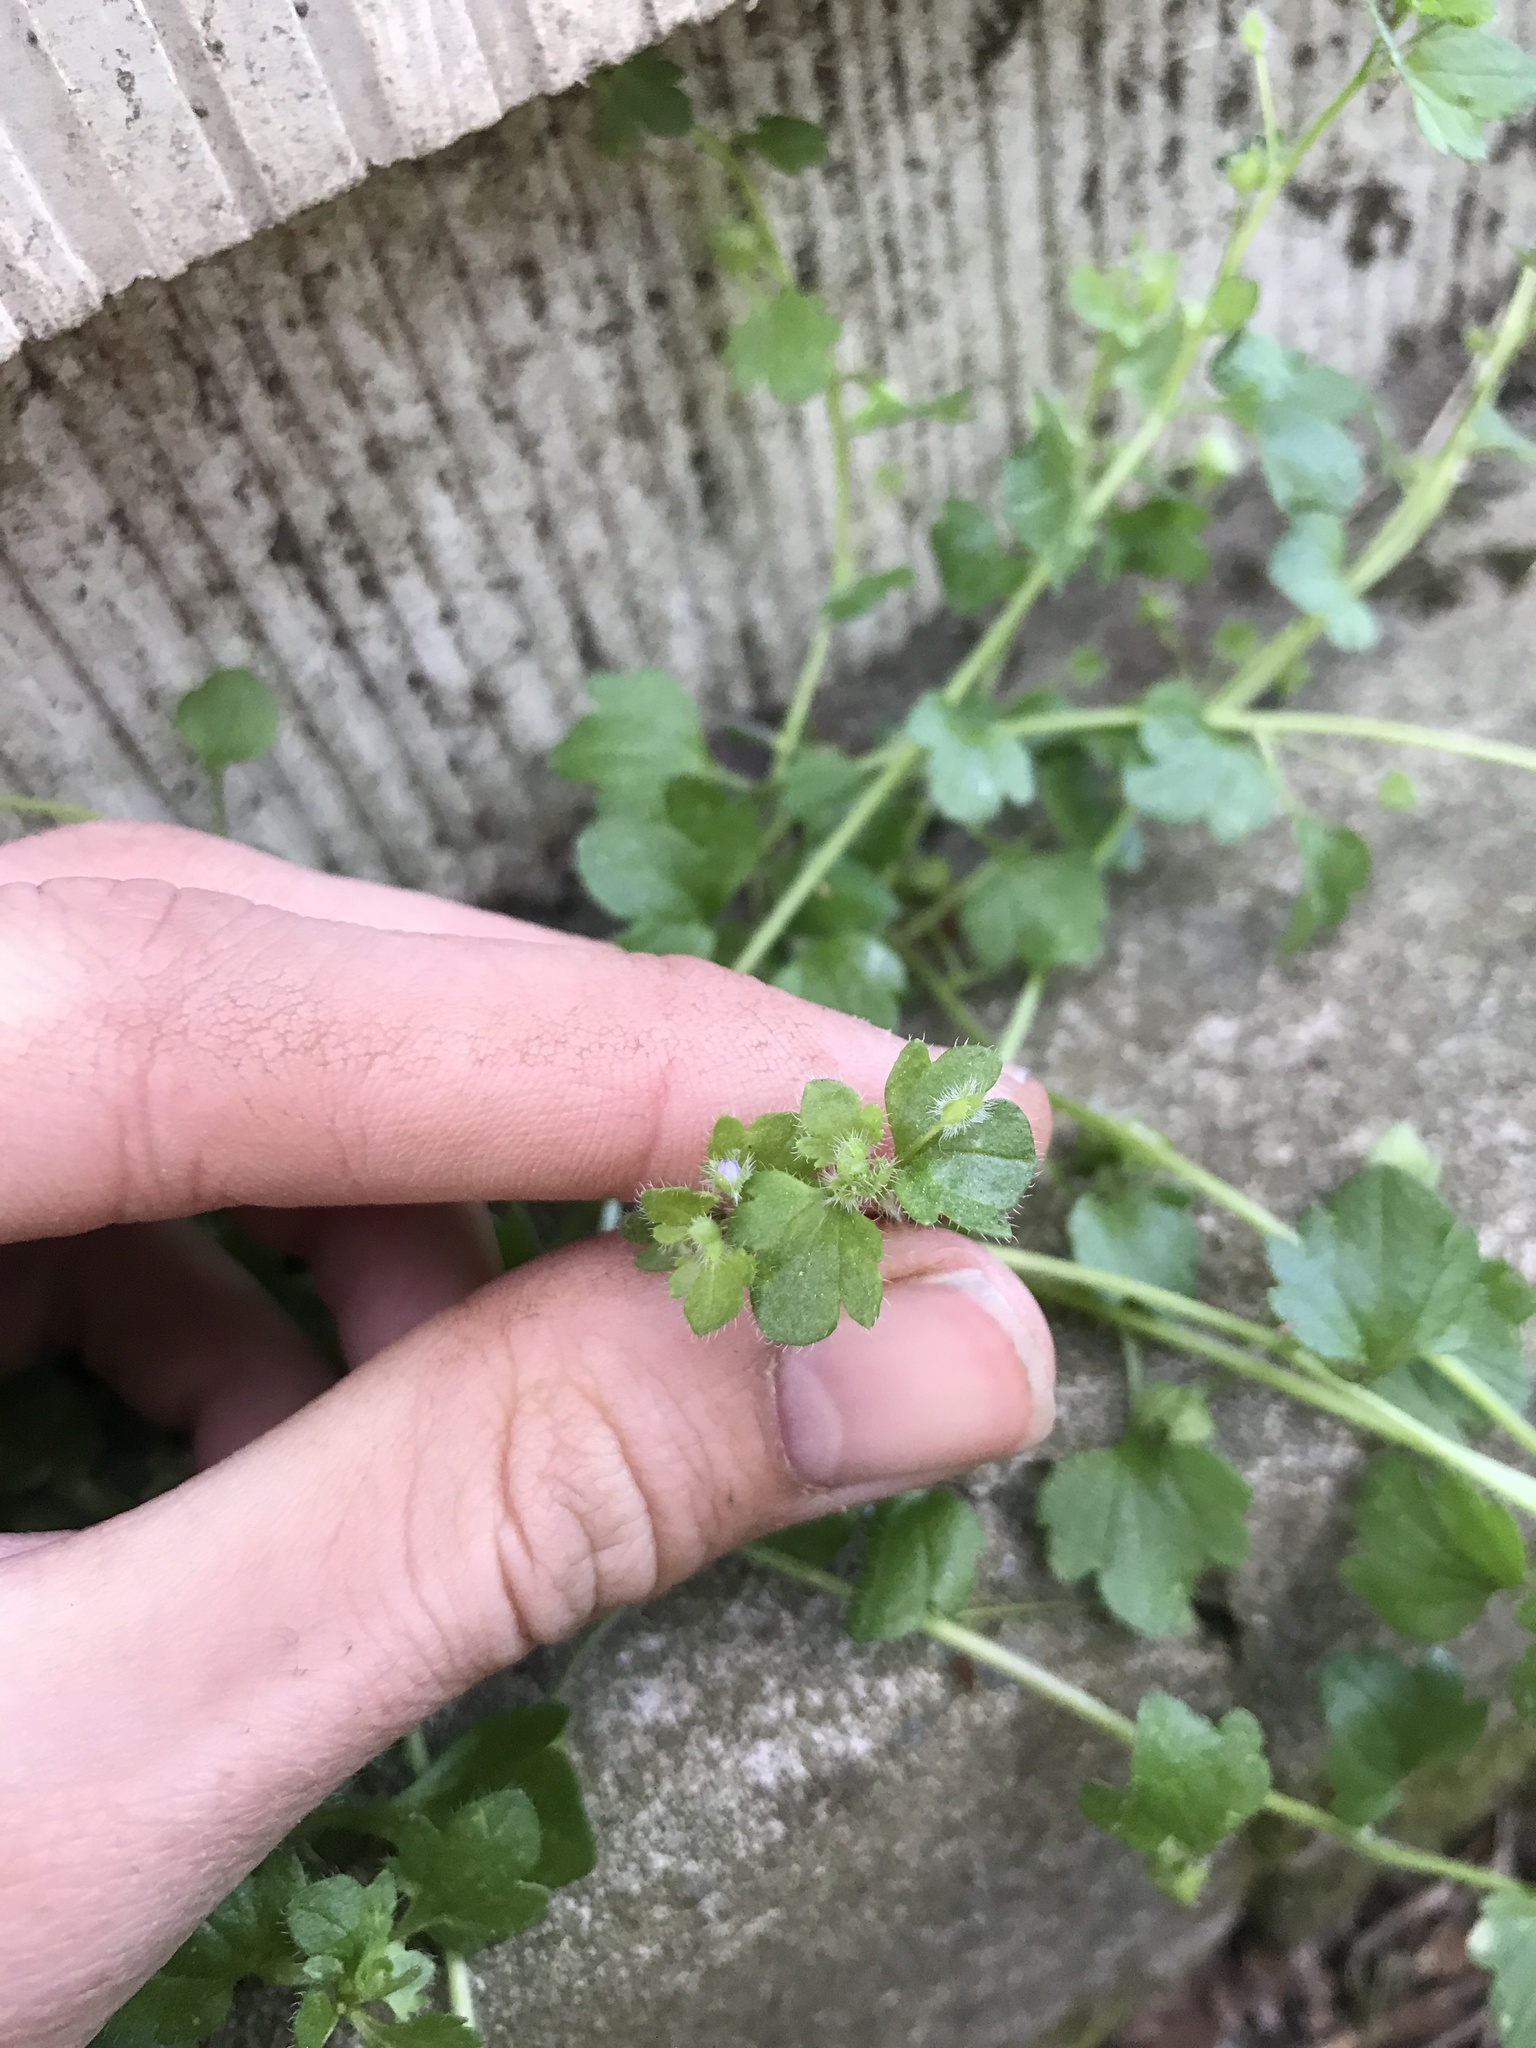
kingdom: Plantae
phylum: Tracheophyta
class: Magnoliopsida
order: Lamiales
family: Plantaginaceae
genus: Veronica
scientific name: Veronica hederifolia
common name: Ivy-leaved speedwell
